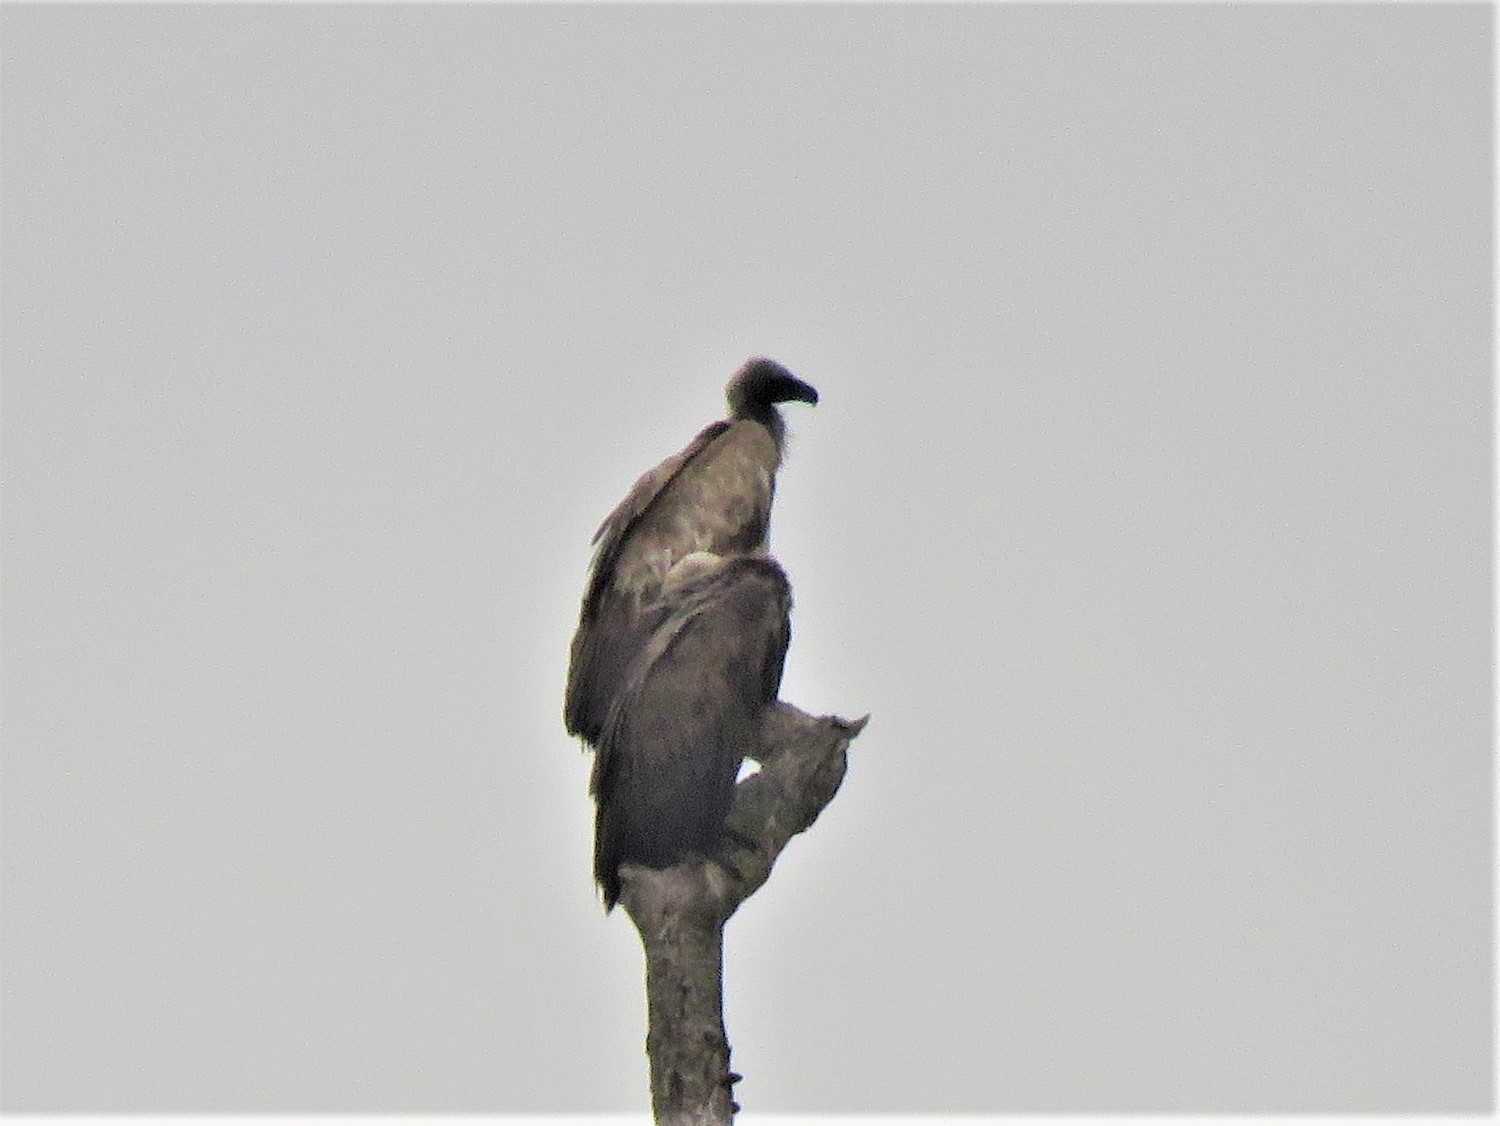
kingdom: Animalia
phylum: Chordata
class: Aves
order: Accipitriformes
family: Accipitridae
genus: Gyps
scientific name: Gyps africanus
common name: White-backed vulture
